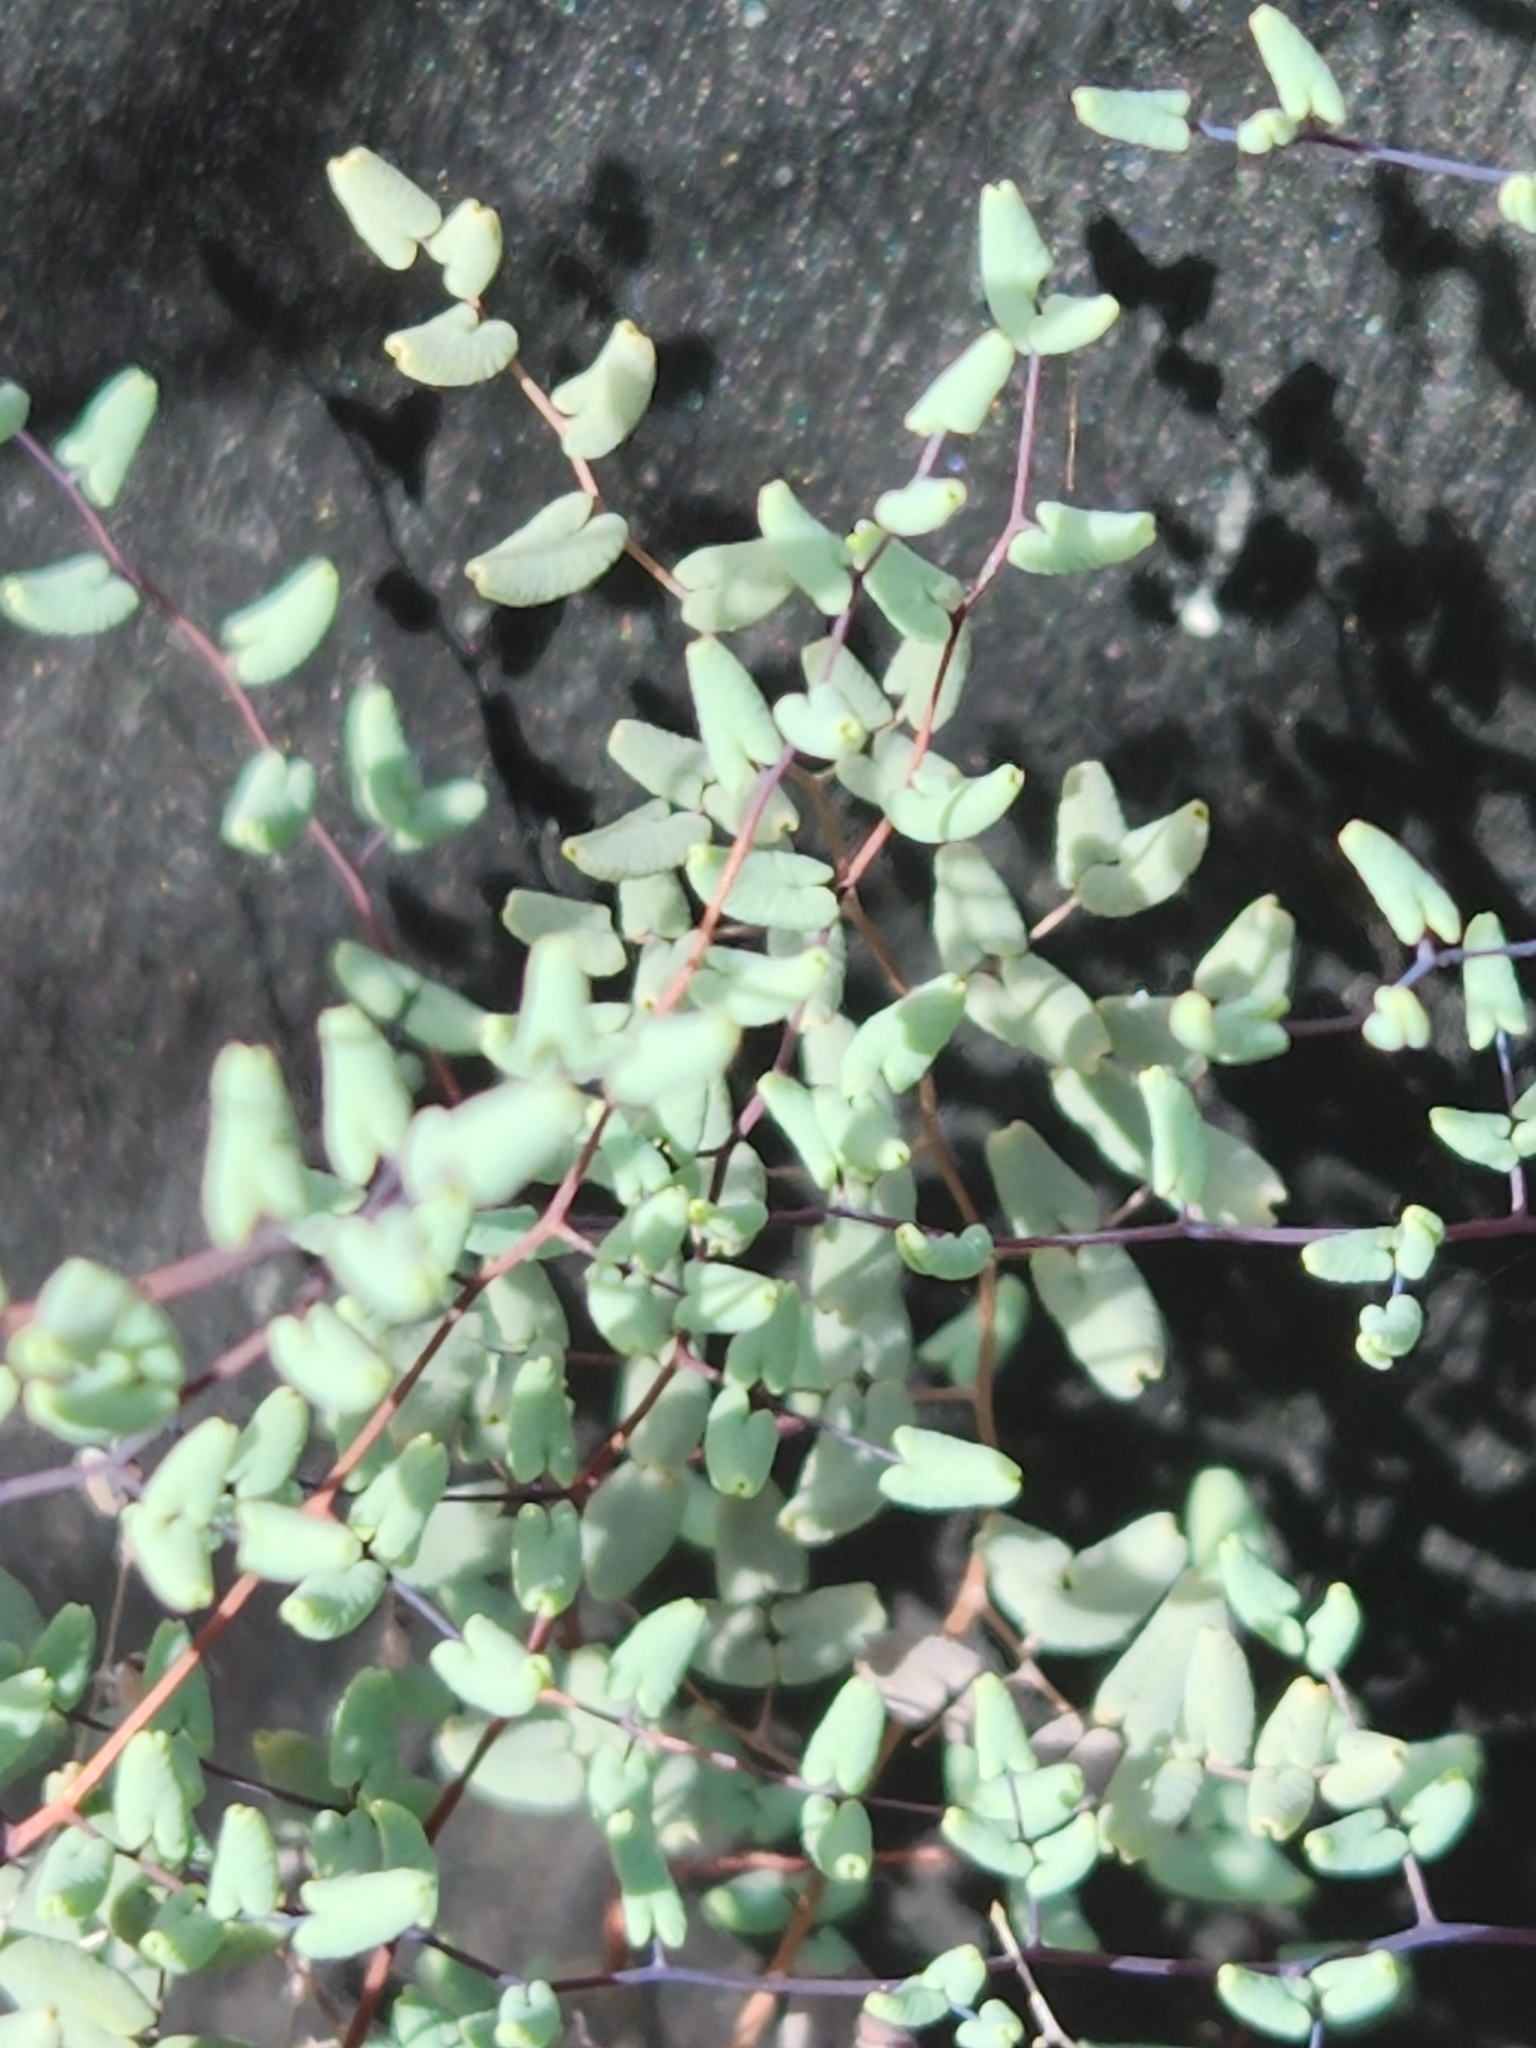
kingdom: Plantae
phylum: Tracheophyta
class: Polypodiopsida
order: Polypodiales
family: Pteridaceae
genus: Argyrochosma
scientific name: Argyrochosma microphylla
